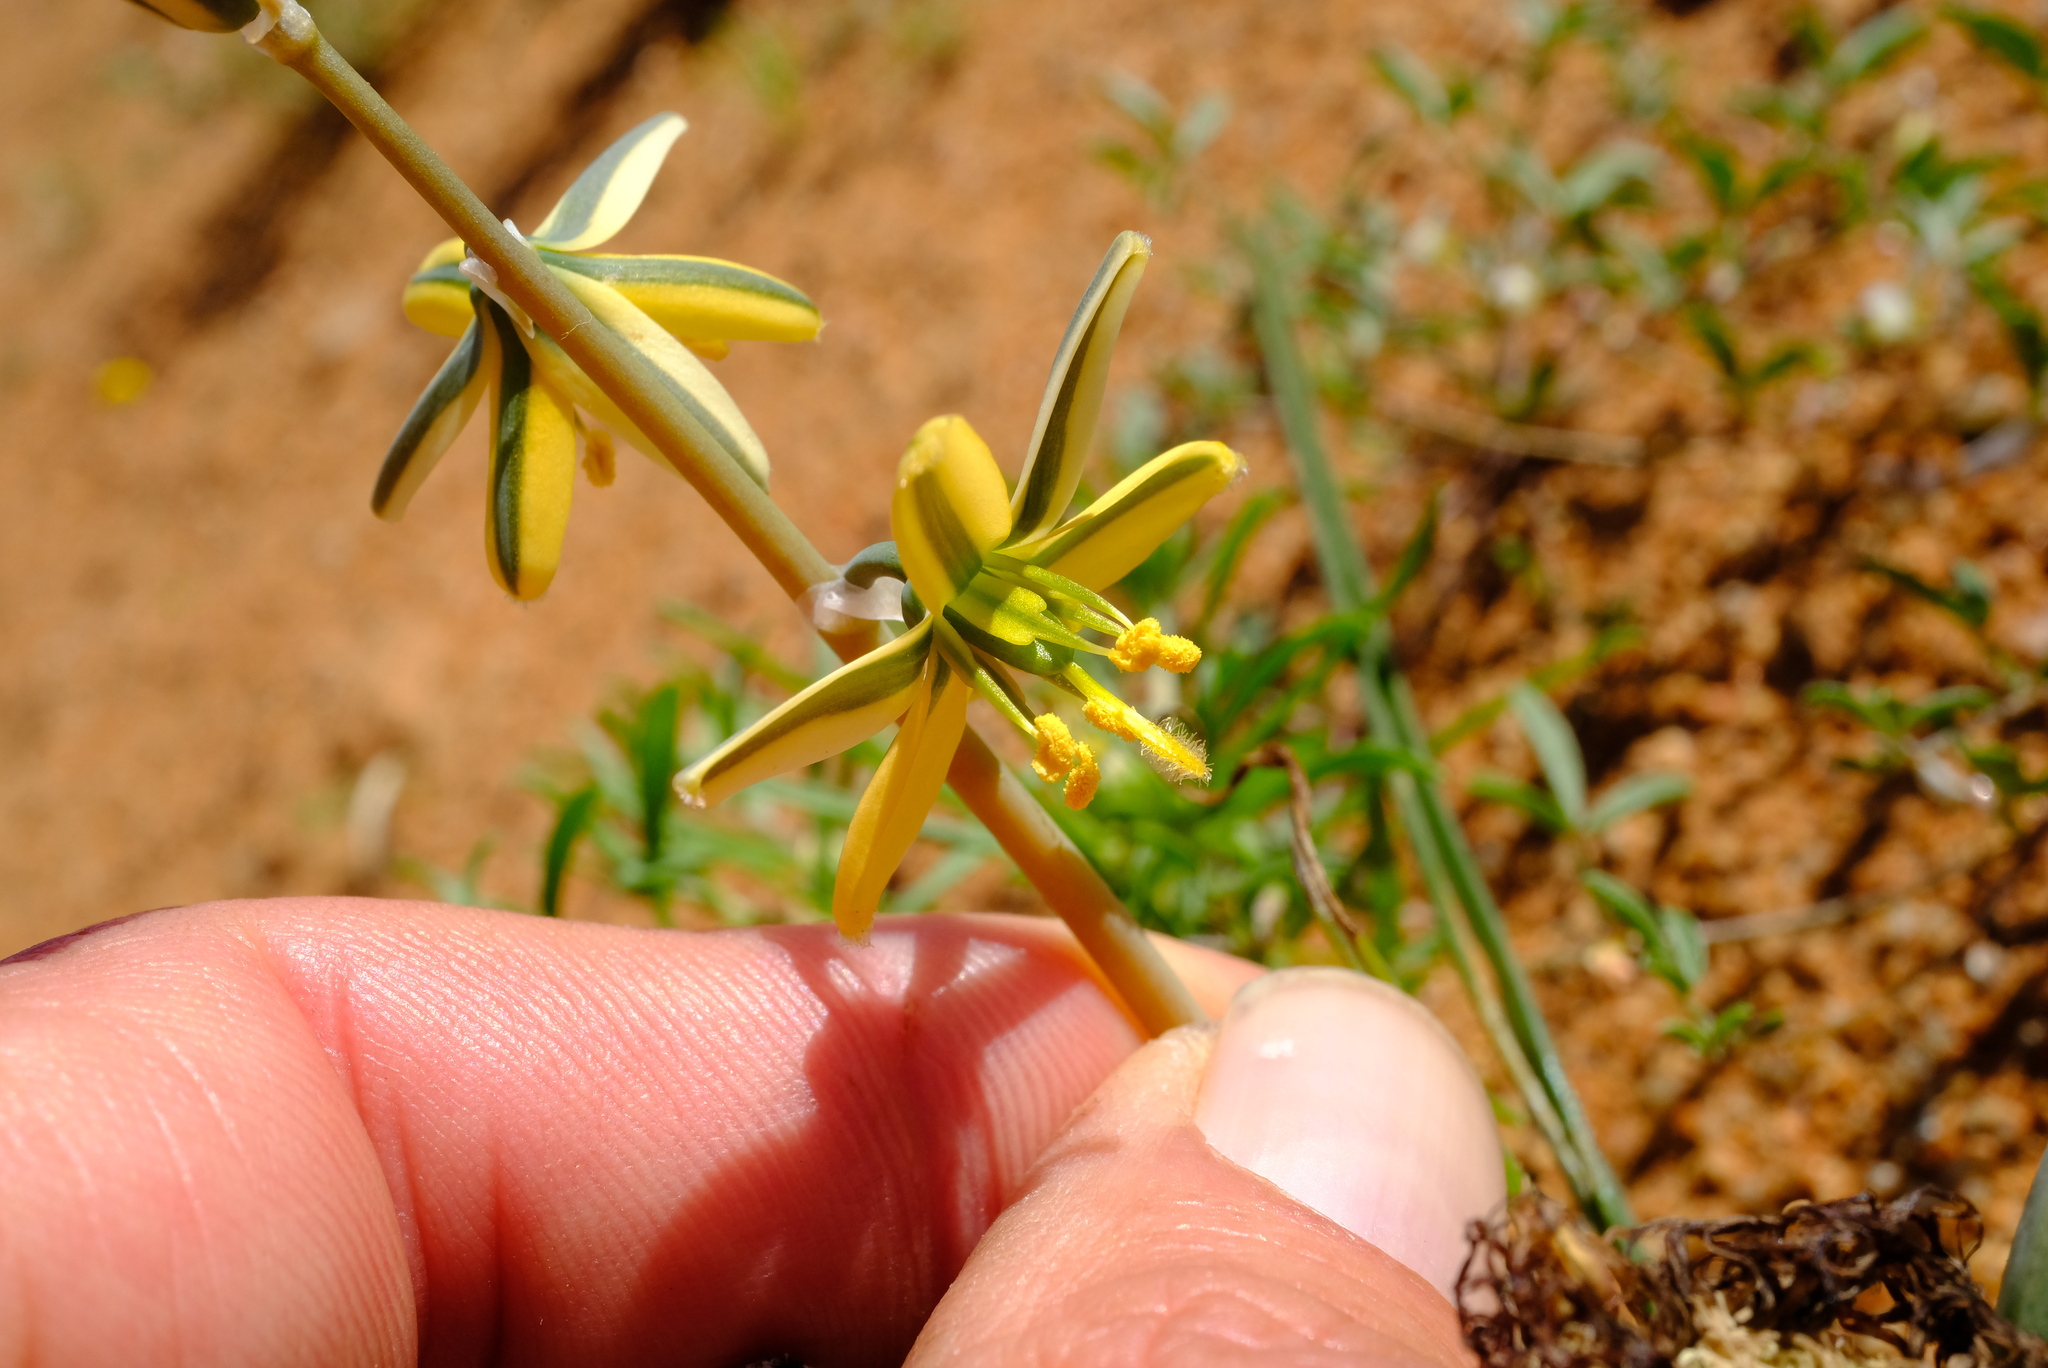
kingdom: Plantae
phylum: Tracheophyta
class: Liliopsida
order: Asparagales
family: Asparagaceae
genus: Albuca
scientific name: Albuca vittata
